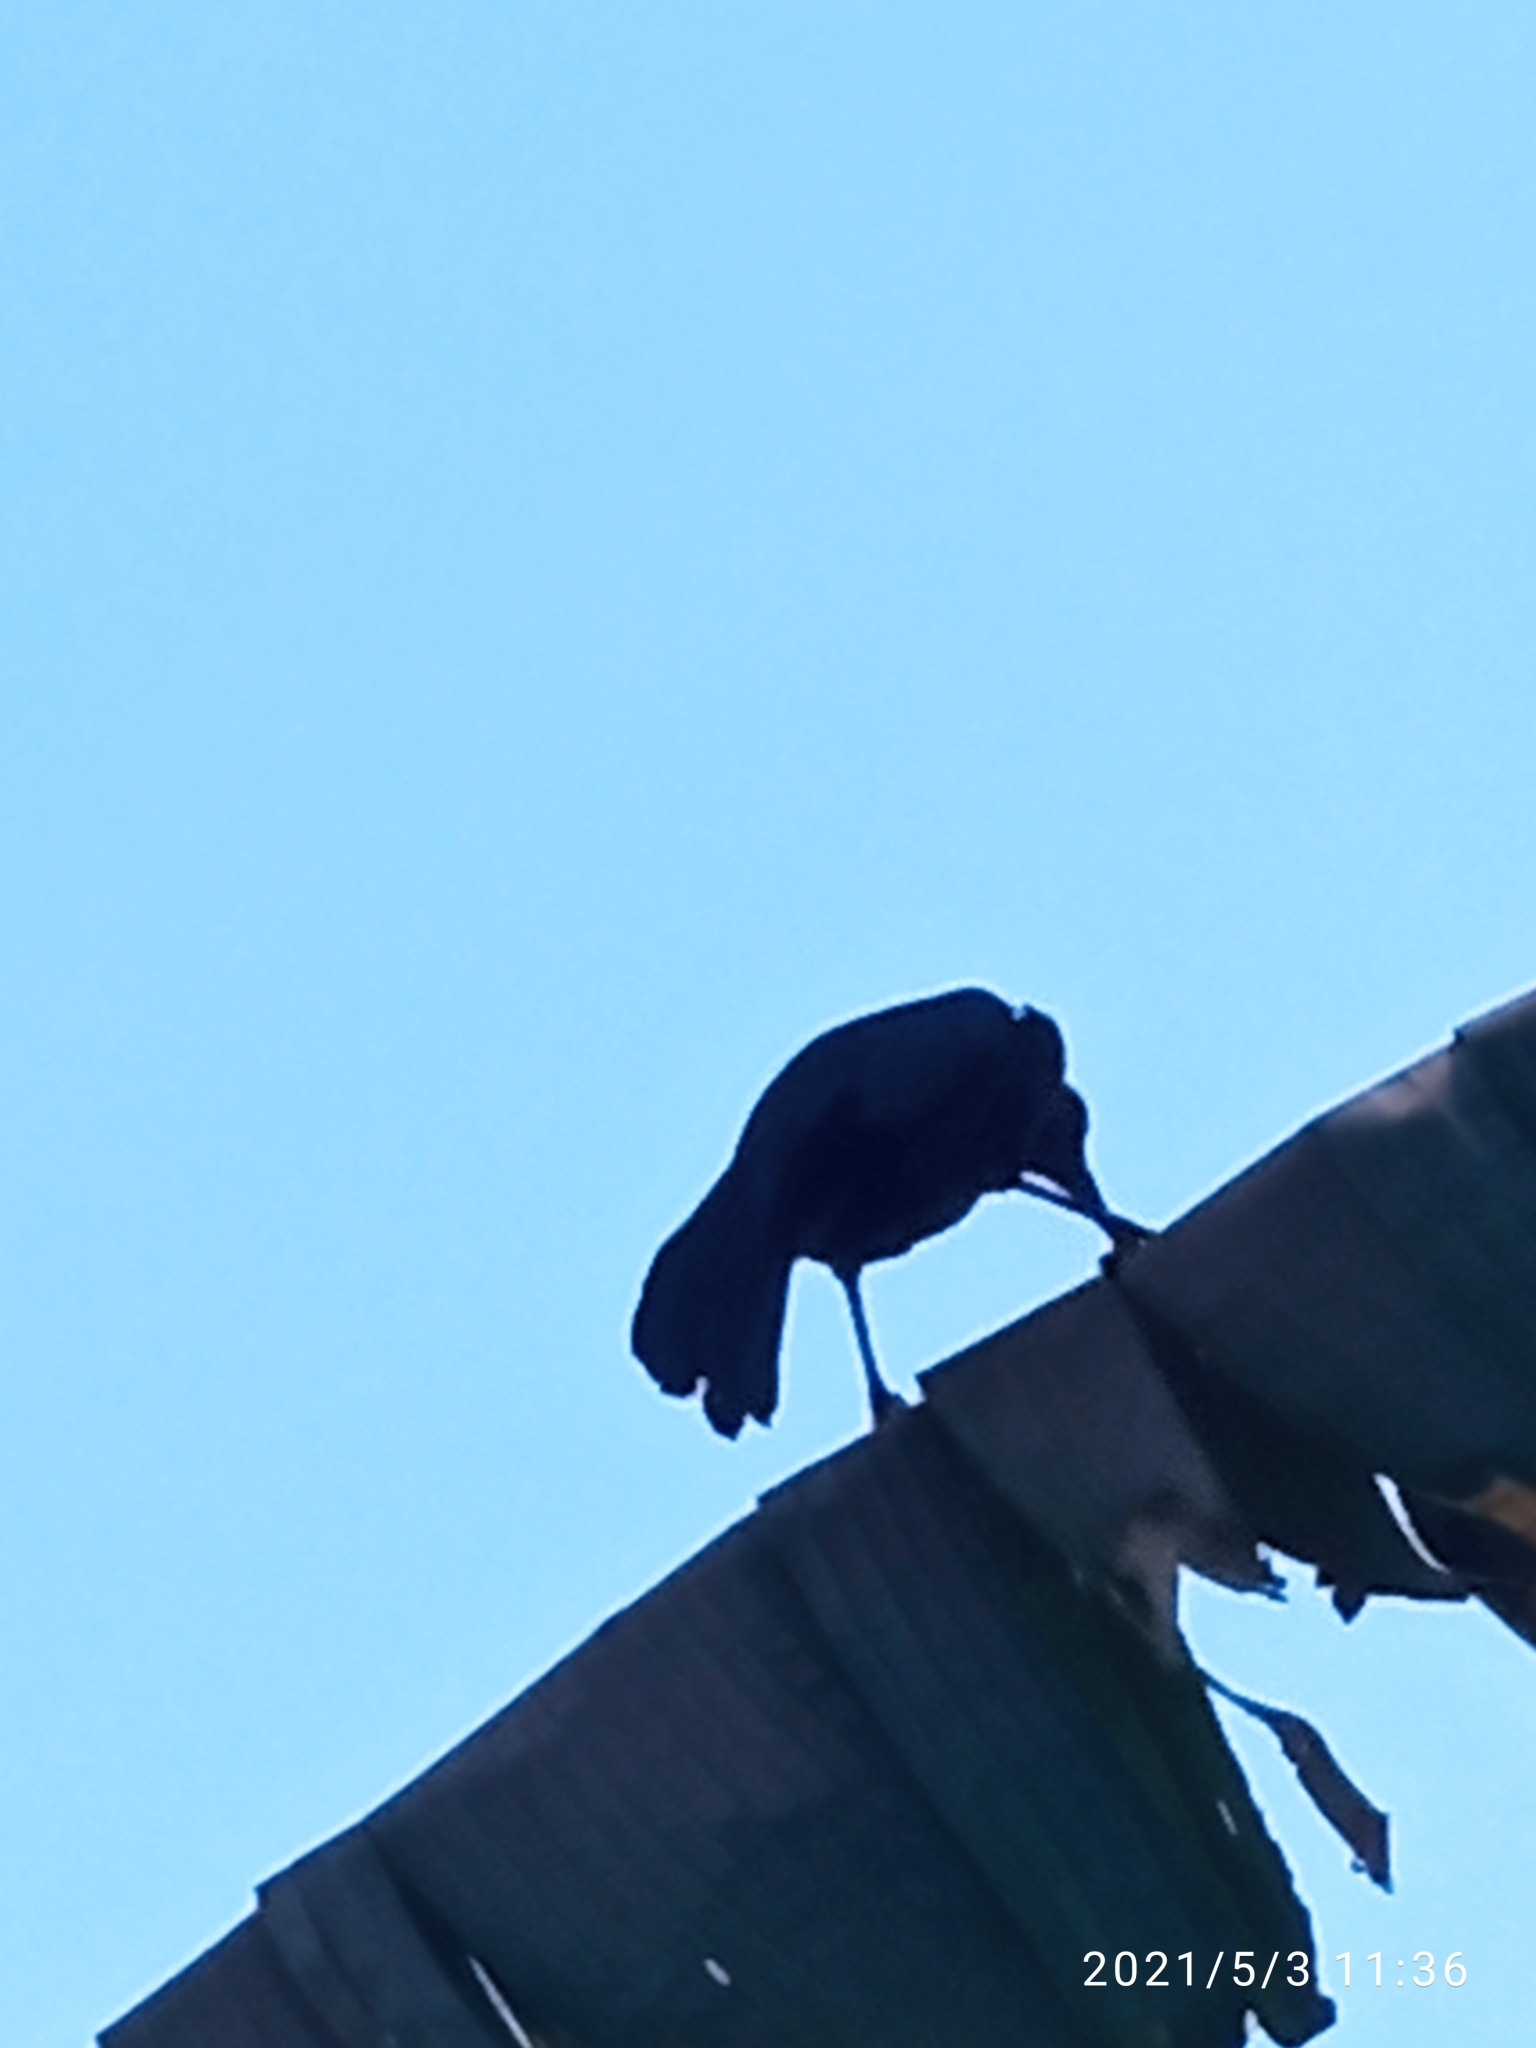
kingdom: Animalia
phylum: Chordata
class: Aves
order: Passeriformes
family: Icteridae
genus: Quiscalus
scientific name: Quiscalus mexicanus
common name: Great-tailed grackle
